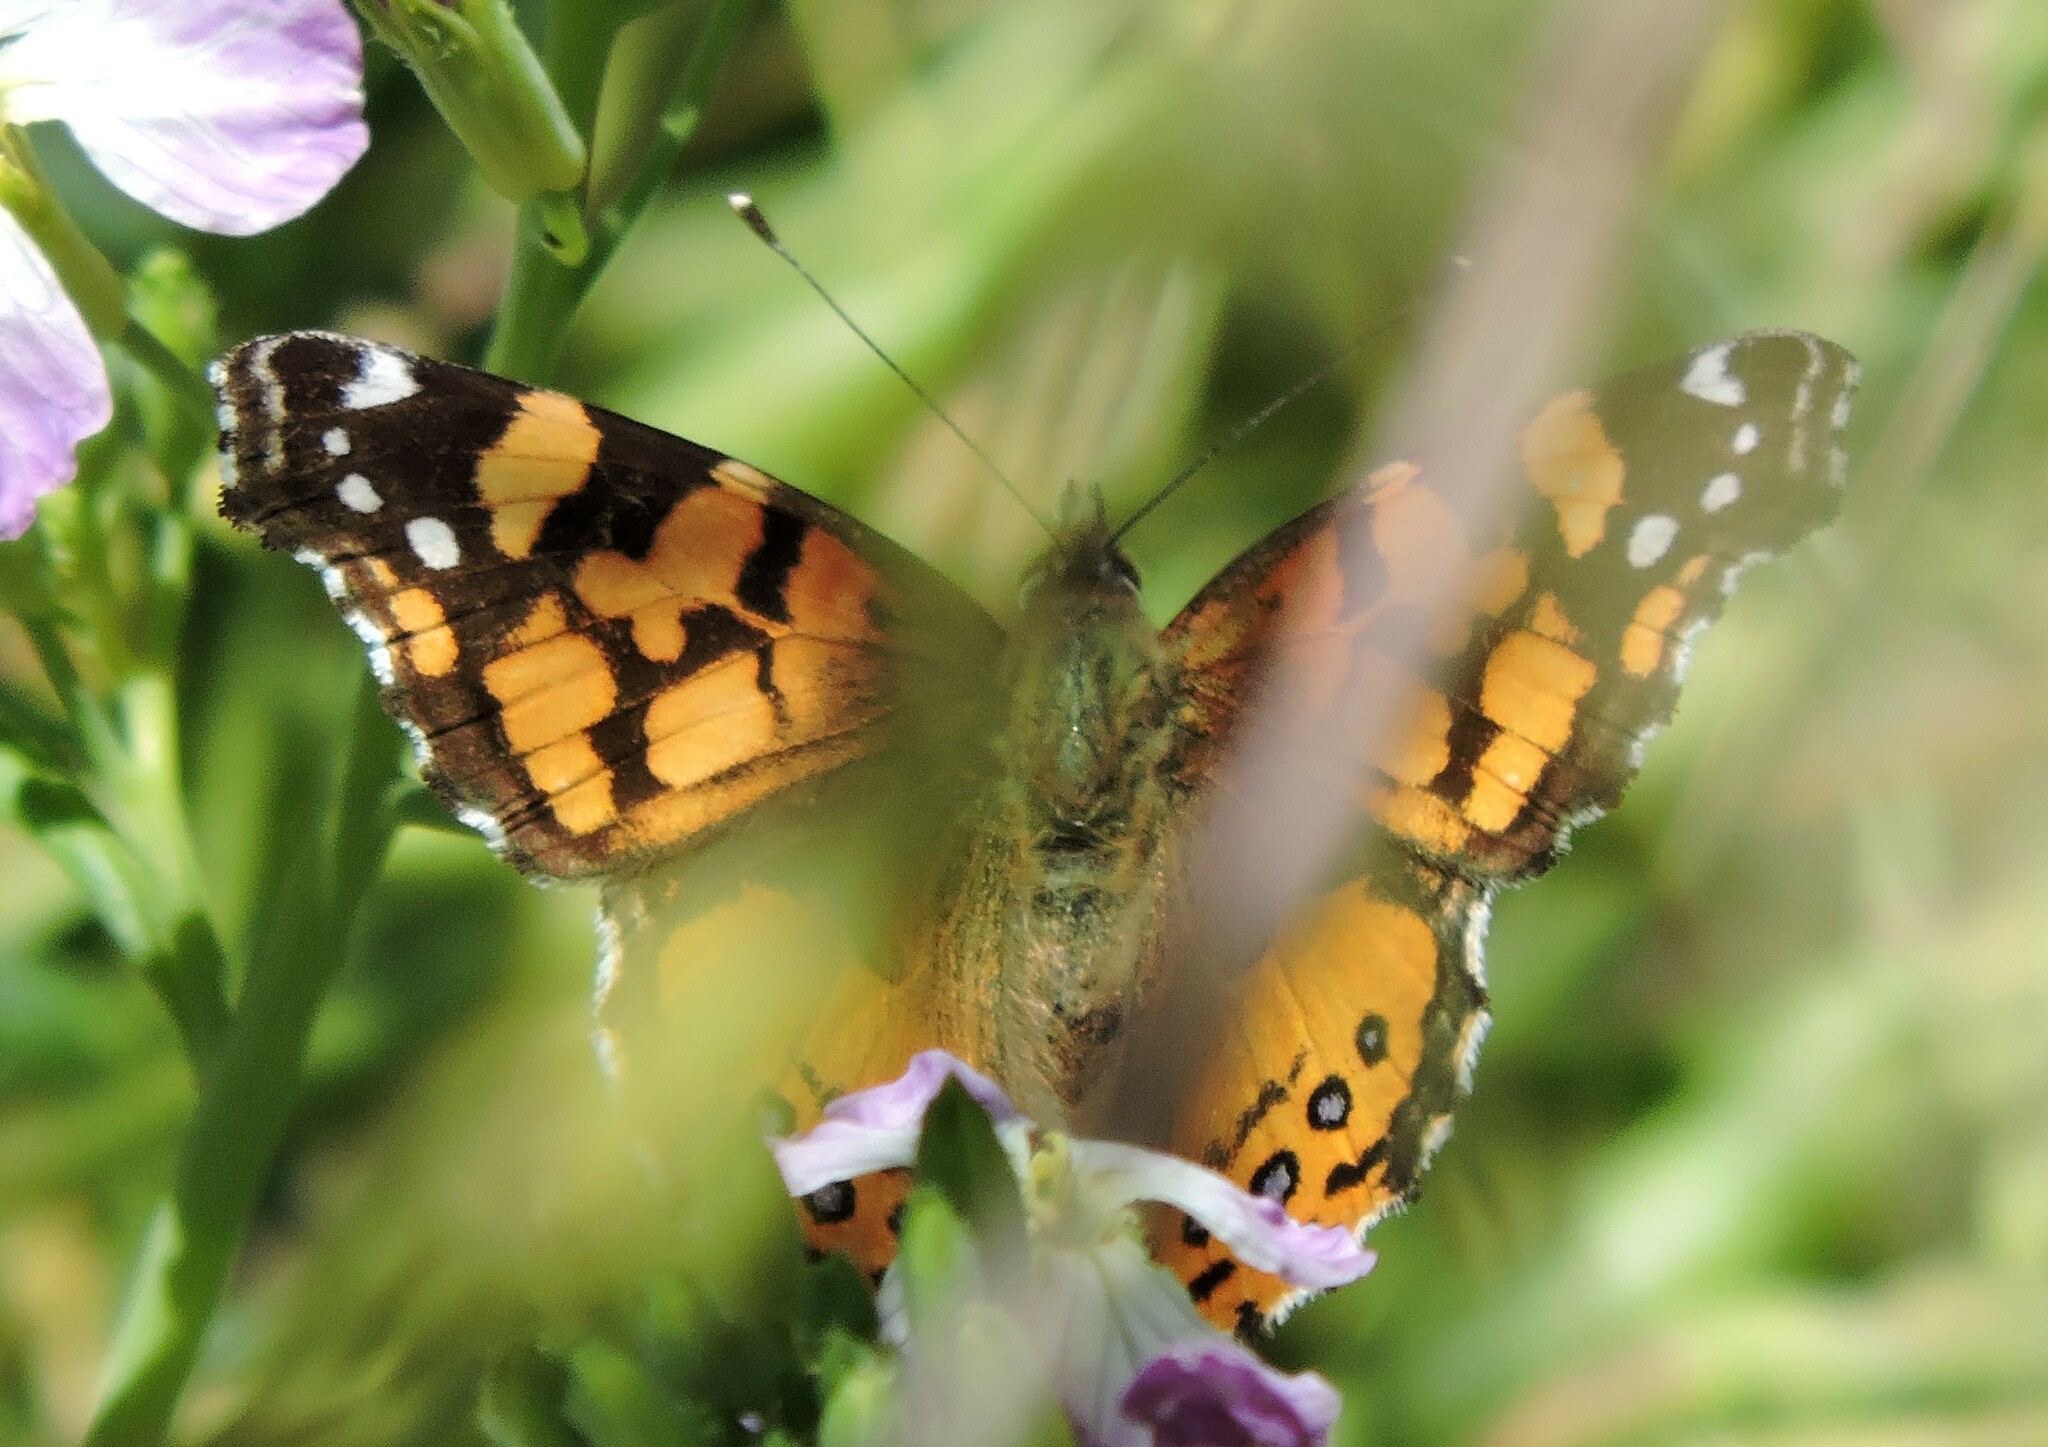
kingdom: Animalia
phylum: Arthropoda
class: Insecta
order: Lepidoptera
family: Nymphalidae
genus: Vanessa
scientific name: Vanessa annabella
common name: West coast lady
